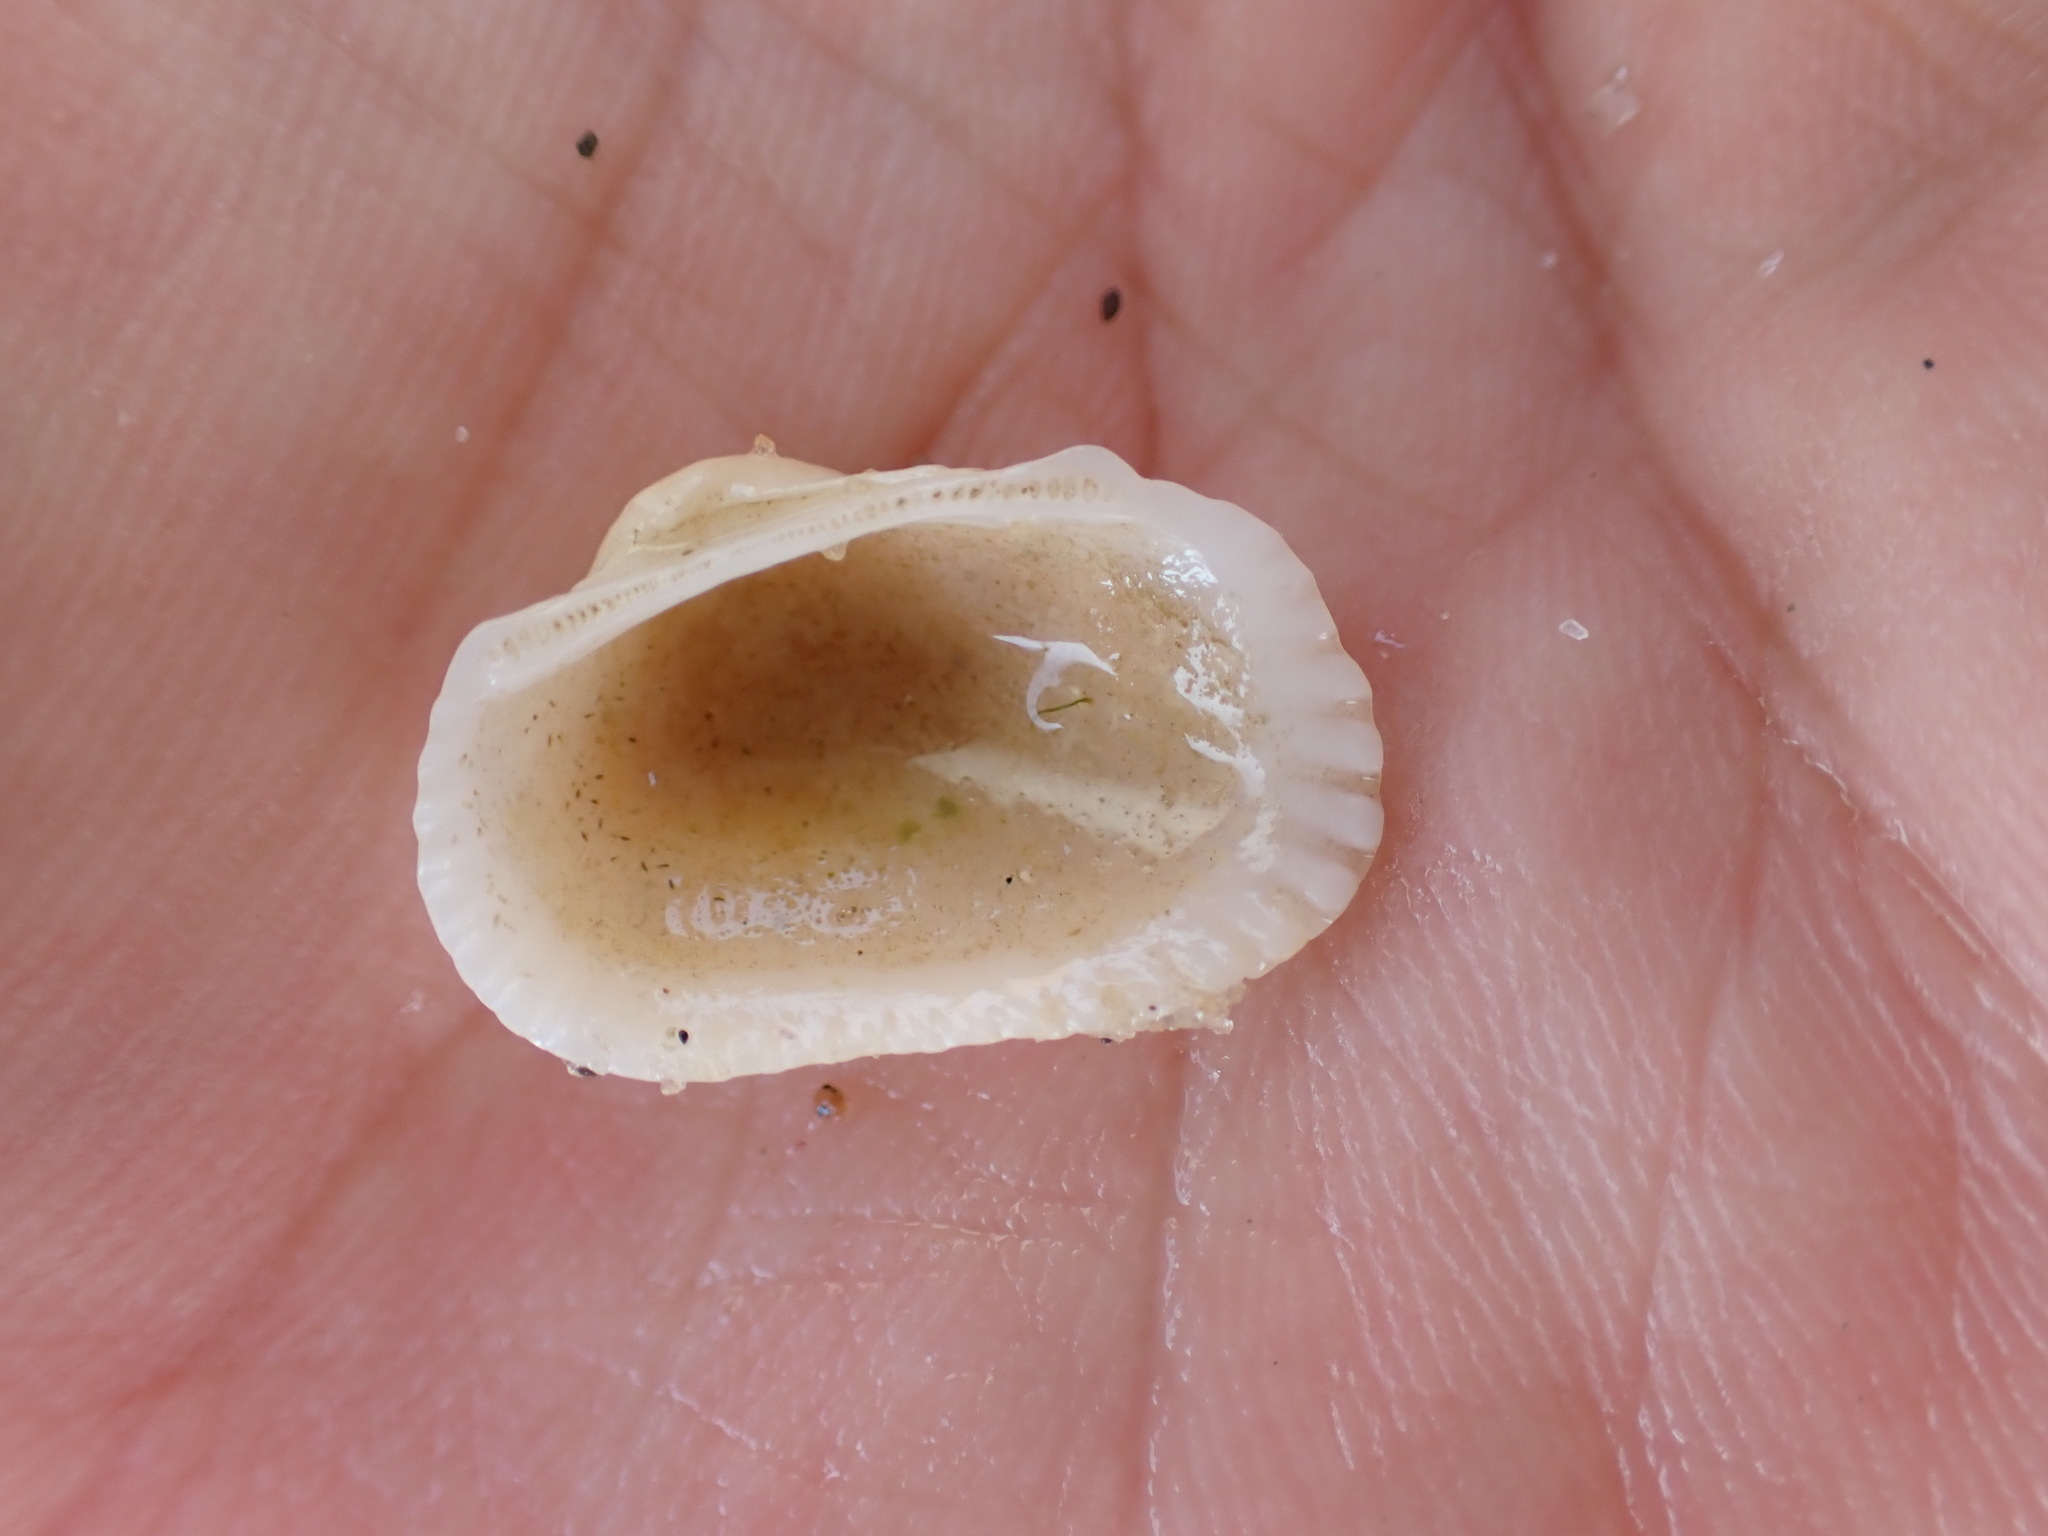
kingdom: Animalia
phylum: Mollusca
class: Bivalvia
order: Arcida
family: Arcidae
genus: Anadara
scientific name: Anadara transversa
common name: Transverse ark
